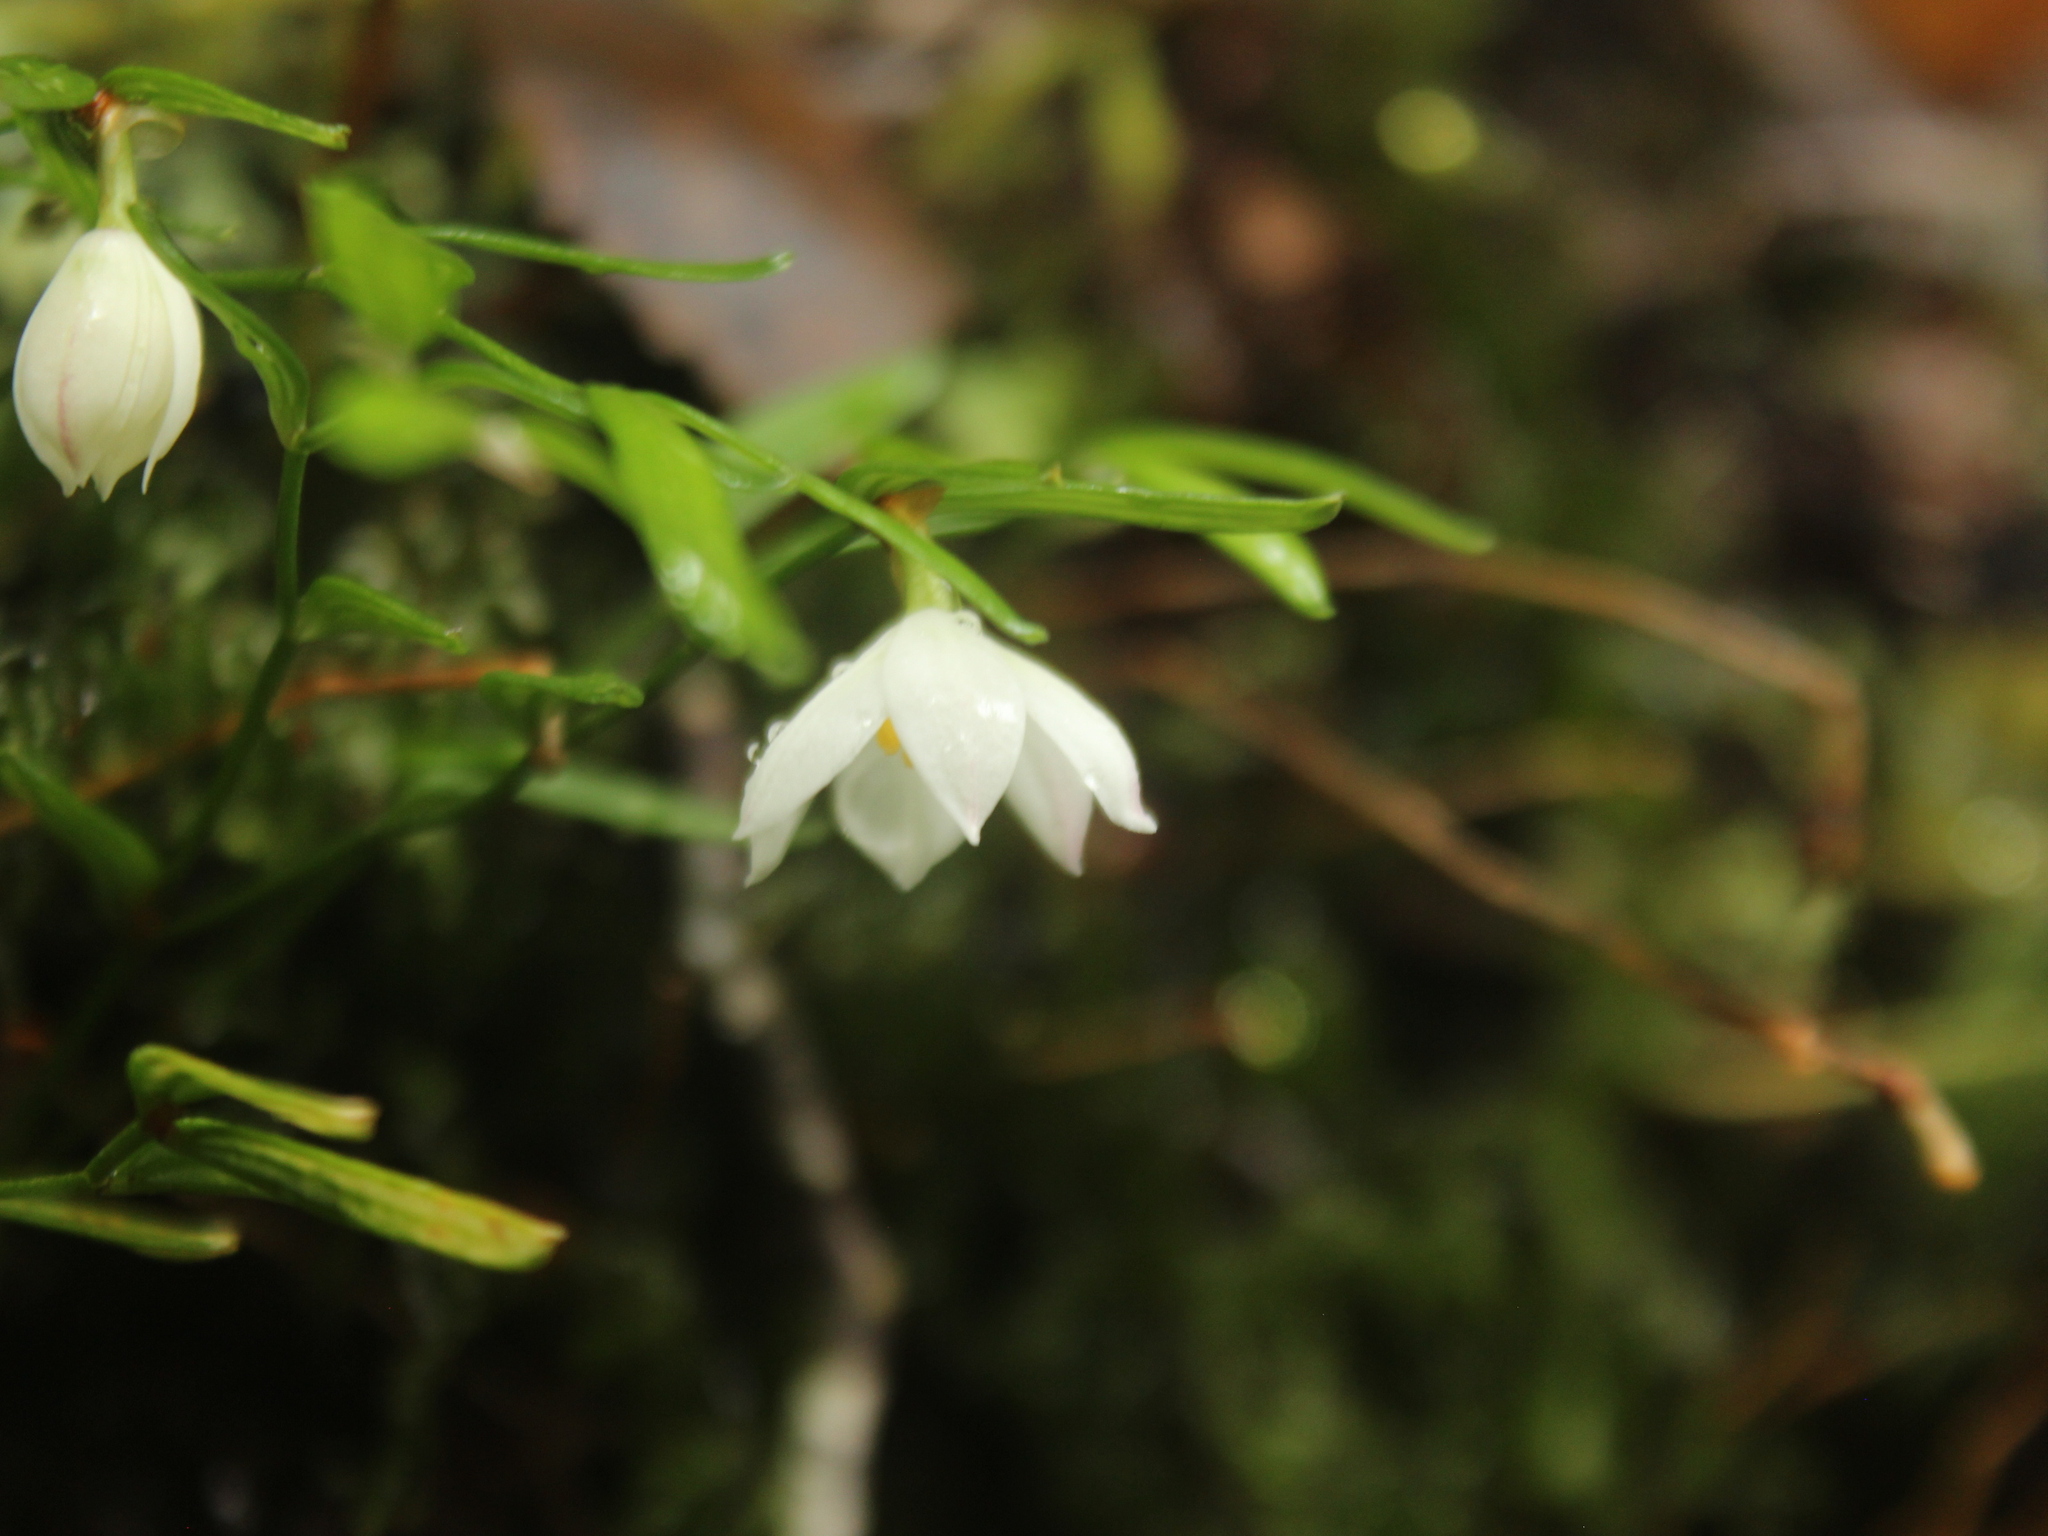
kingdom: Plantae
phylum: Tracheophyta
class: Liliopsida
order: Liliales
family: Alstroemeriaceae
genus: Luzuriaga
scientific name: Luzuriaga parviflora
